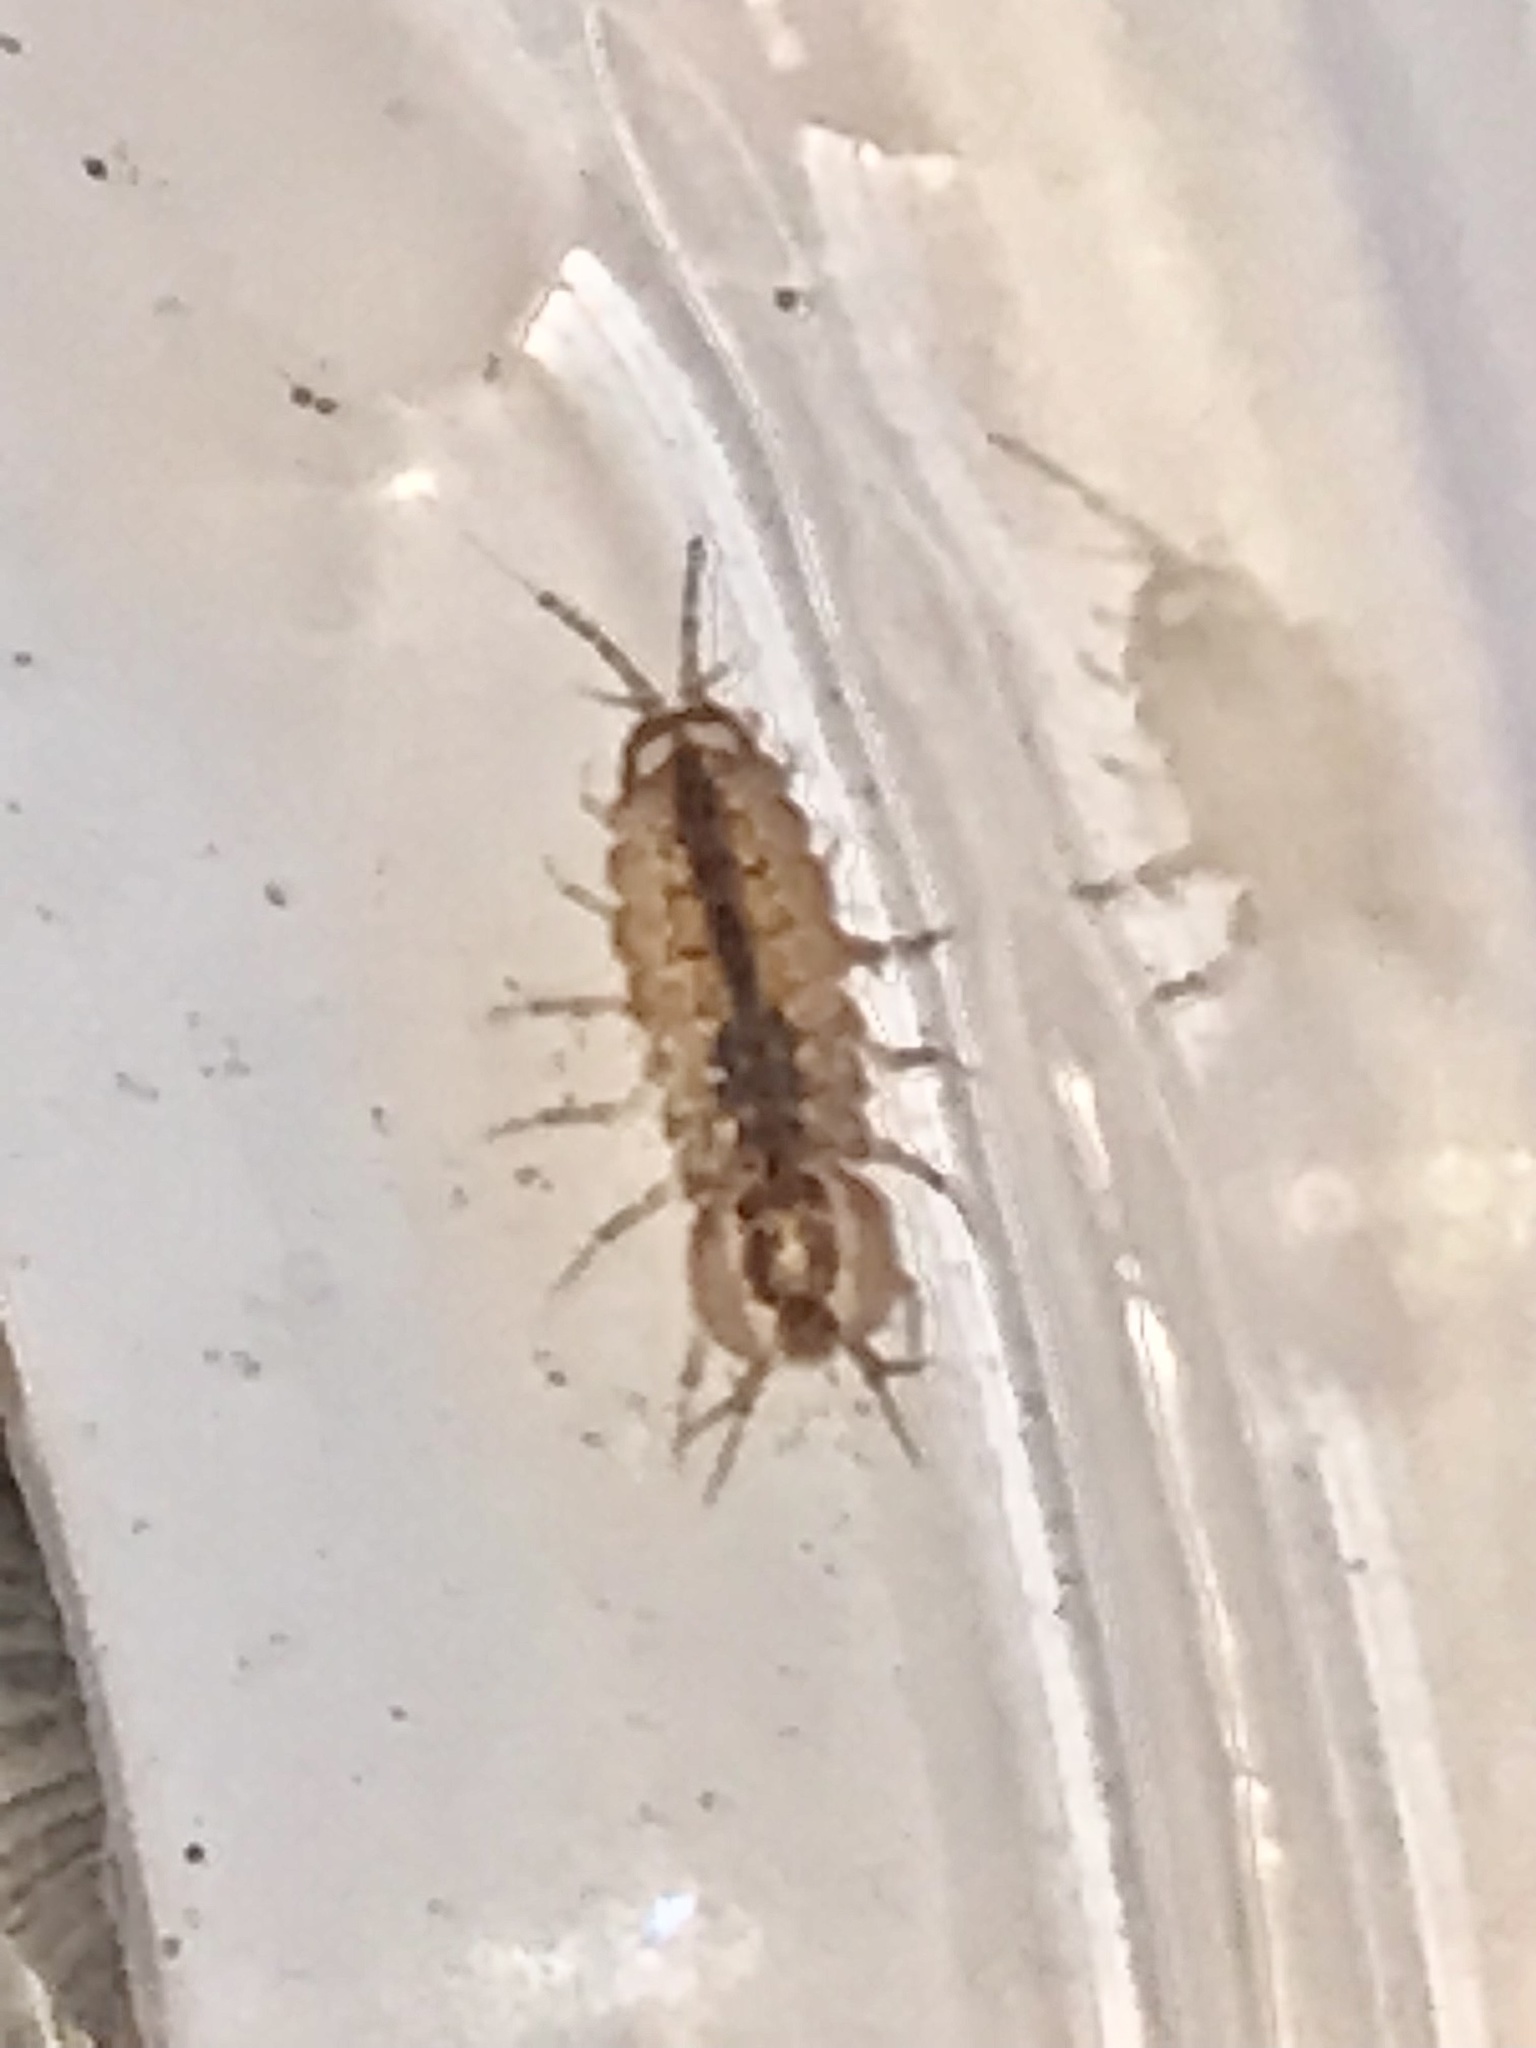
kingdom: Animalia
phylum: Arthropoda
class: Malacostraca
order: Isopoda
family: Asellidae
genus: Asellus
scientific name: Asellus aquaticus
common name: Water hog lice/slaters
